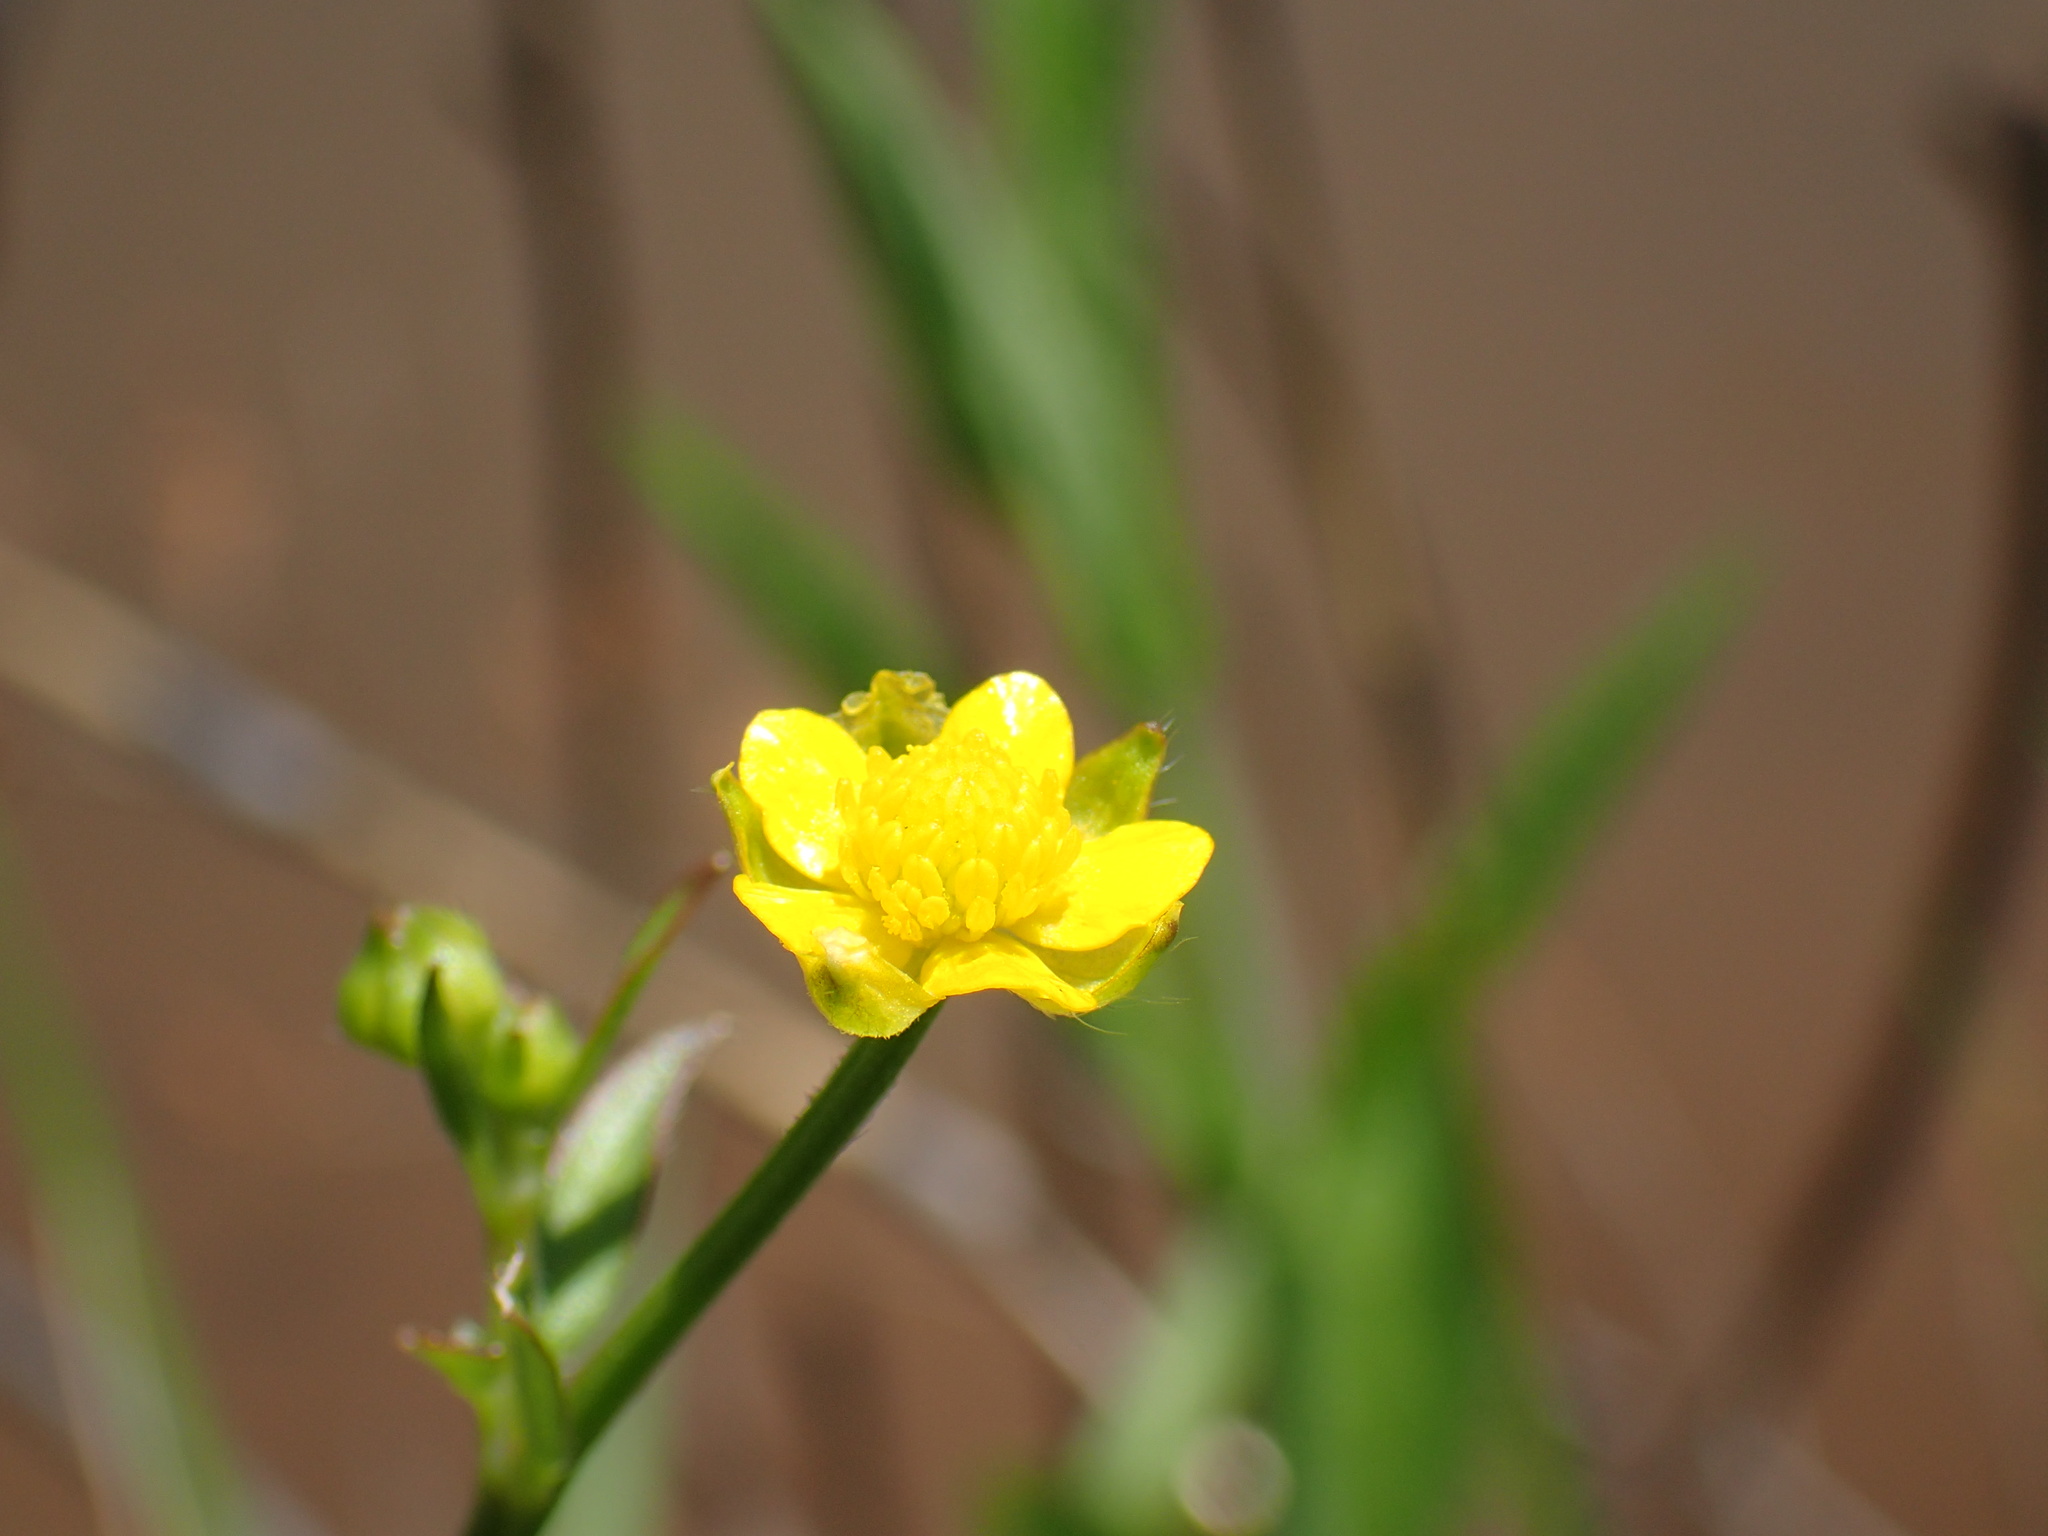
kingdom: Plantae
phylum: Tracheophyta
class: Magnoliopsida
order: Ranunculales
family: Ranunculaceae
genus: Ranunculus
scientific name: Ranunculus multifidus
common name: Wild buttercup
